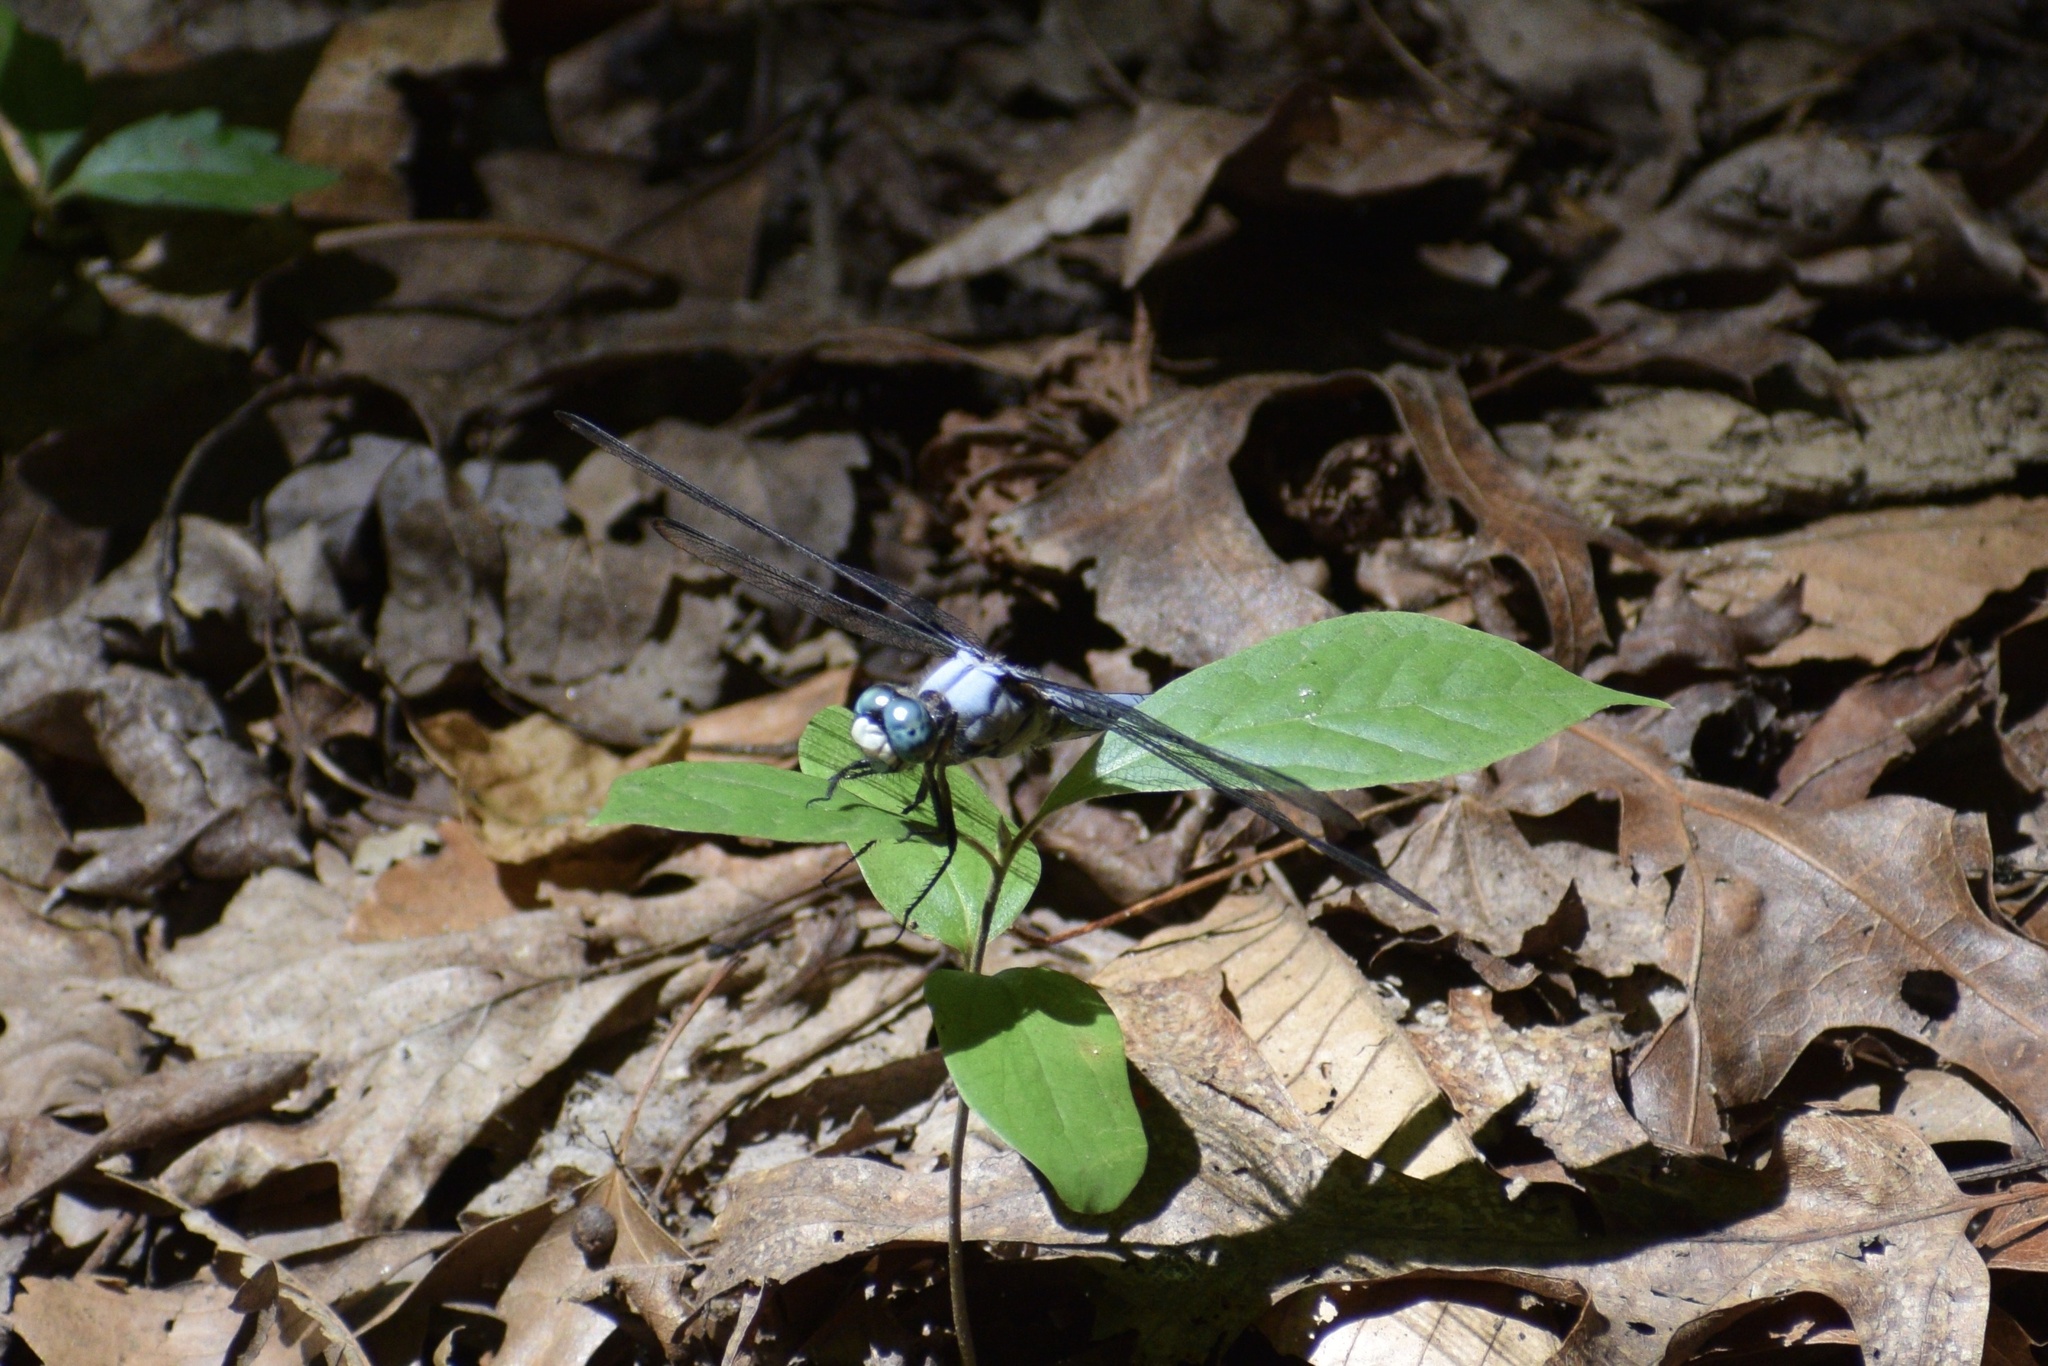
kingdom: Animalia
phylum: Arthropoda
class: Insecta
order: Odonata
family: Libellulidae
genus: Libellula
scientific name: Libellula vibrans
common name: Great blue skimmer
